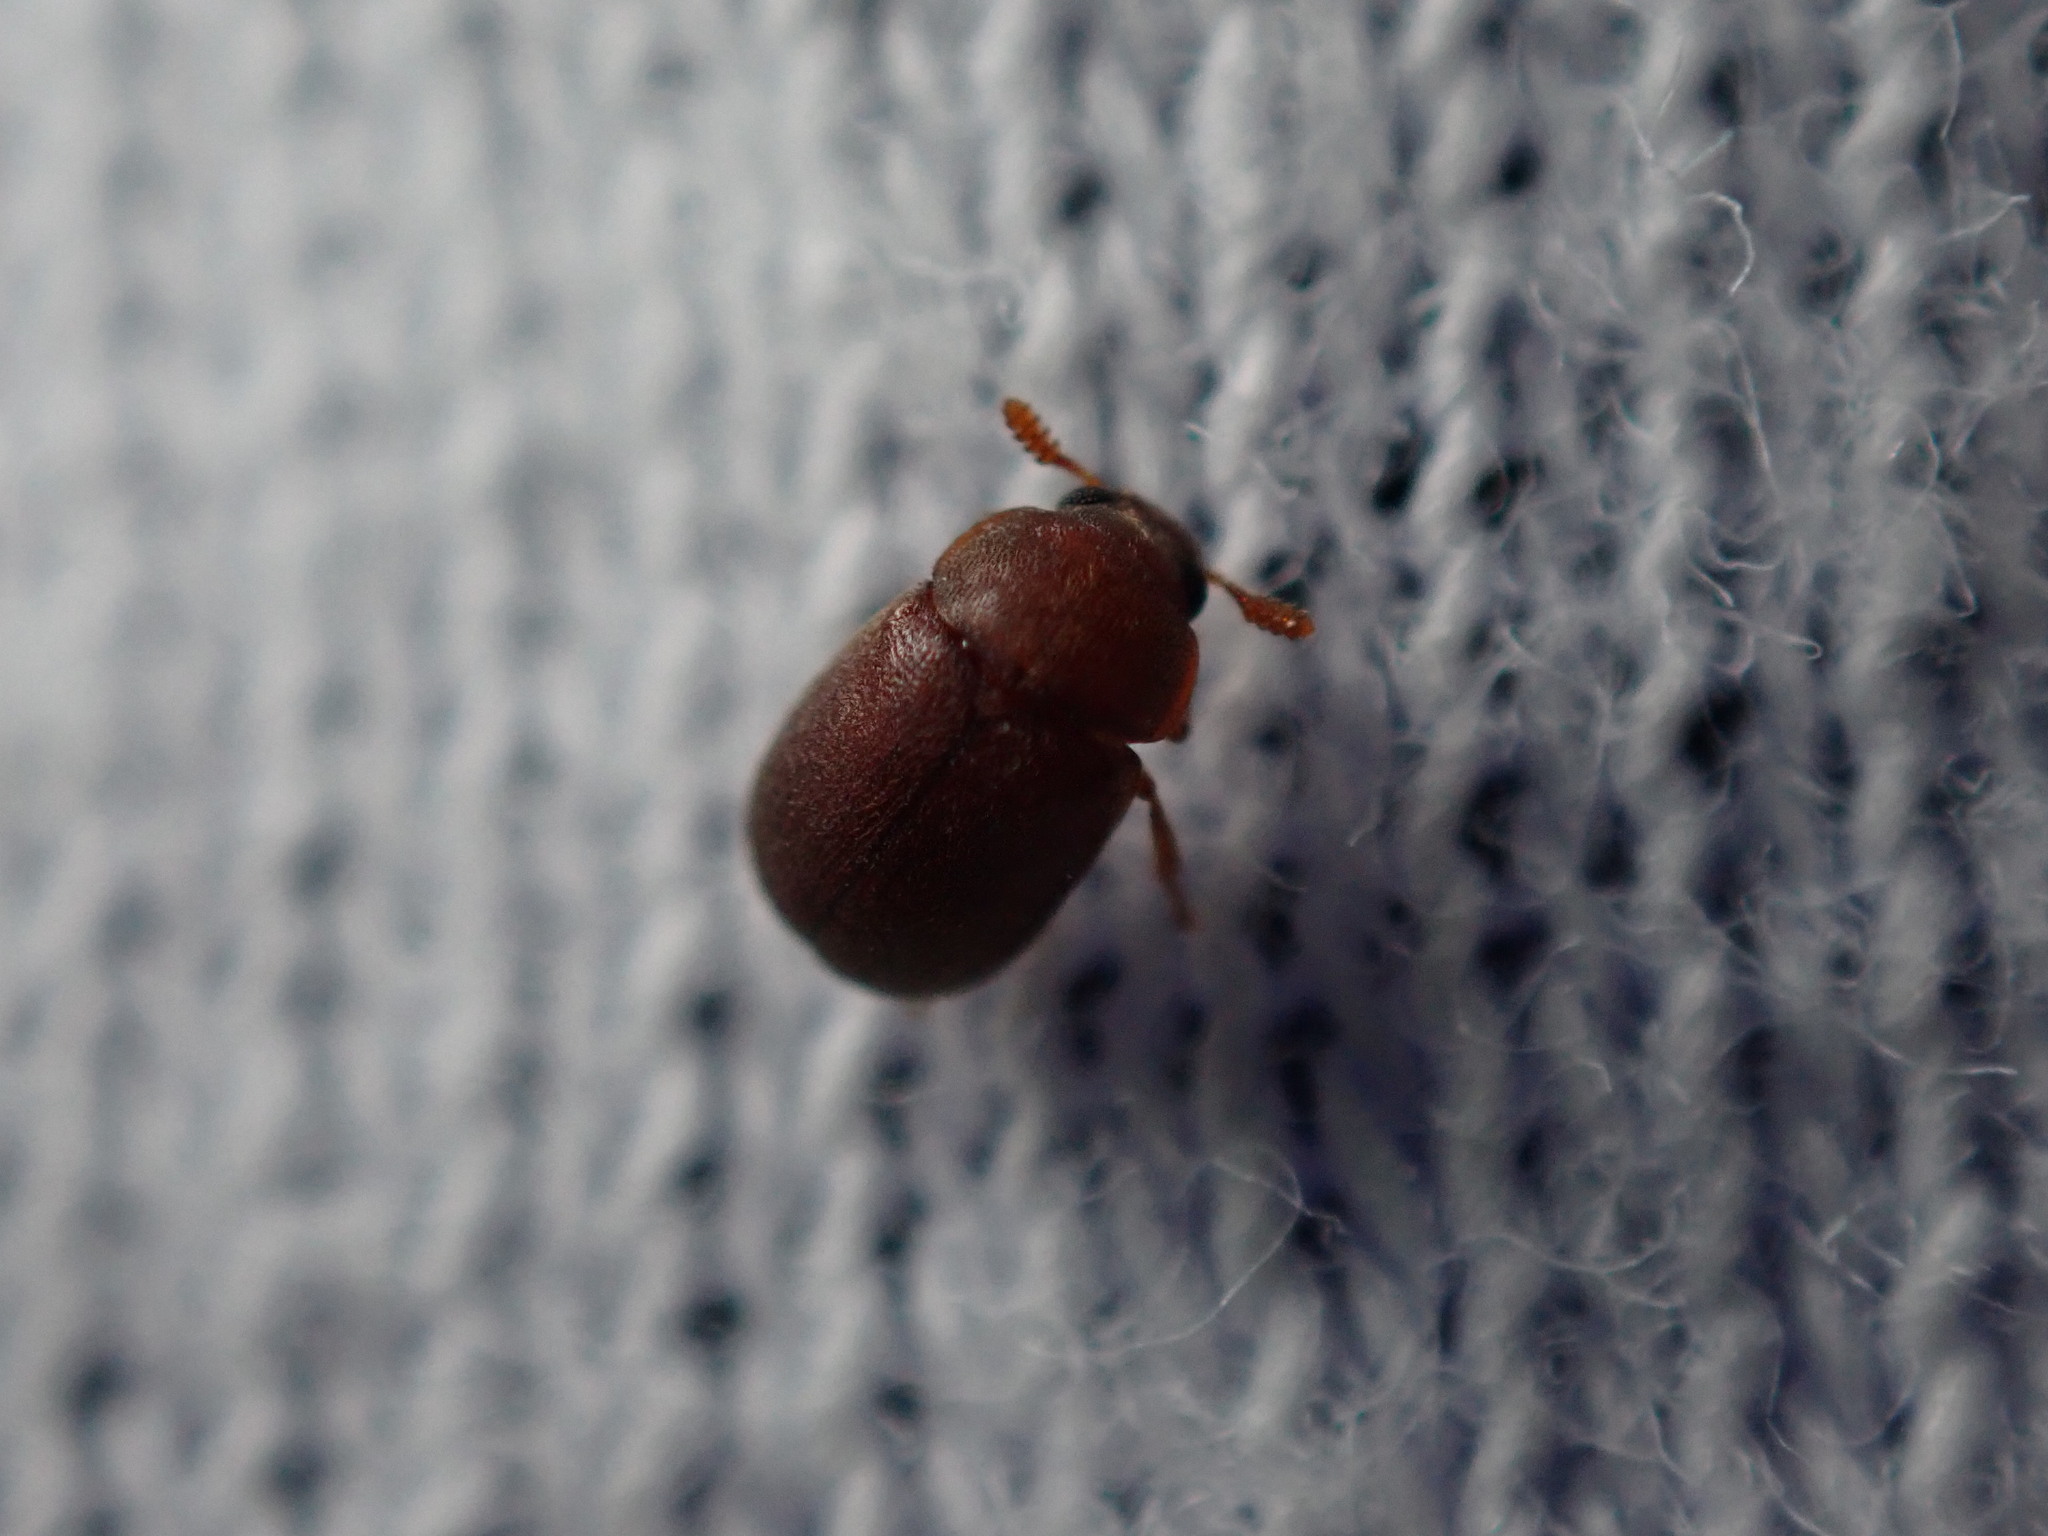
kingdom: Animalia
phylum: Arthropoda
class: Insecta
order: Coleoptera
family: Tenebrionidae
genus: Pentaphyllus
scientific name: Pentaphyllus chrysomeloides
